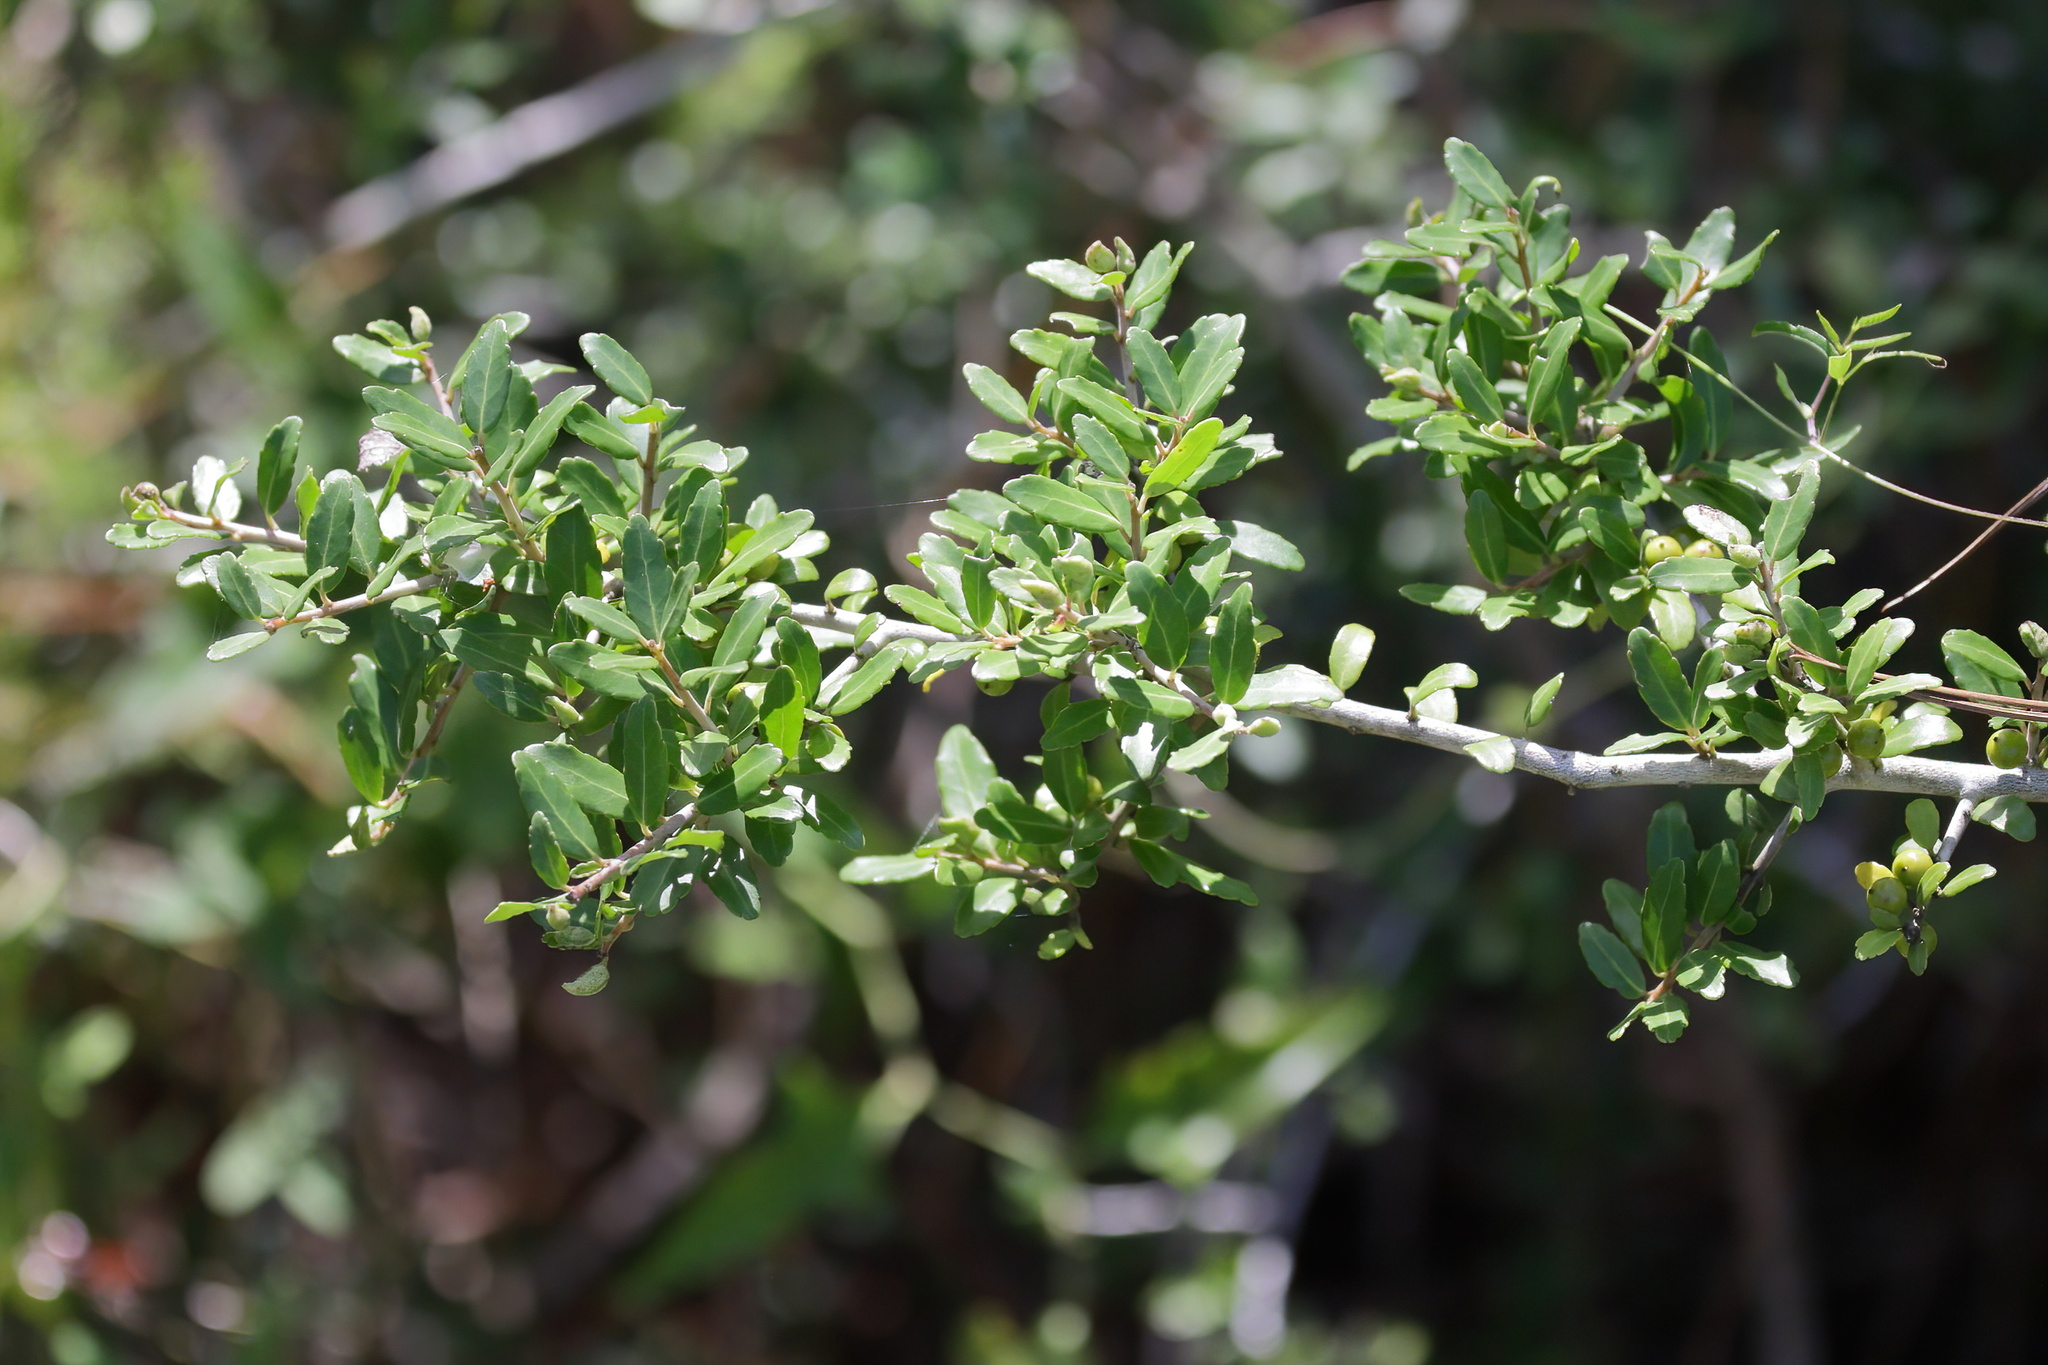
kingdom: Plantae
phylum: Tracheophyta
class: Magnoliopsida
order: Aquifoliales
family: Aquifoliaceae
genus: Ilex
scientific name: Ilex vomitoria
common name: Yaupon holly
